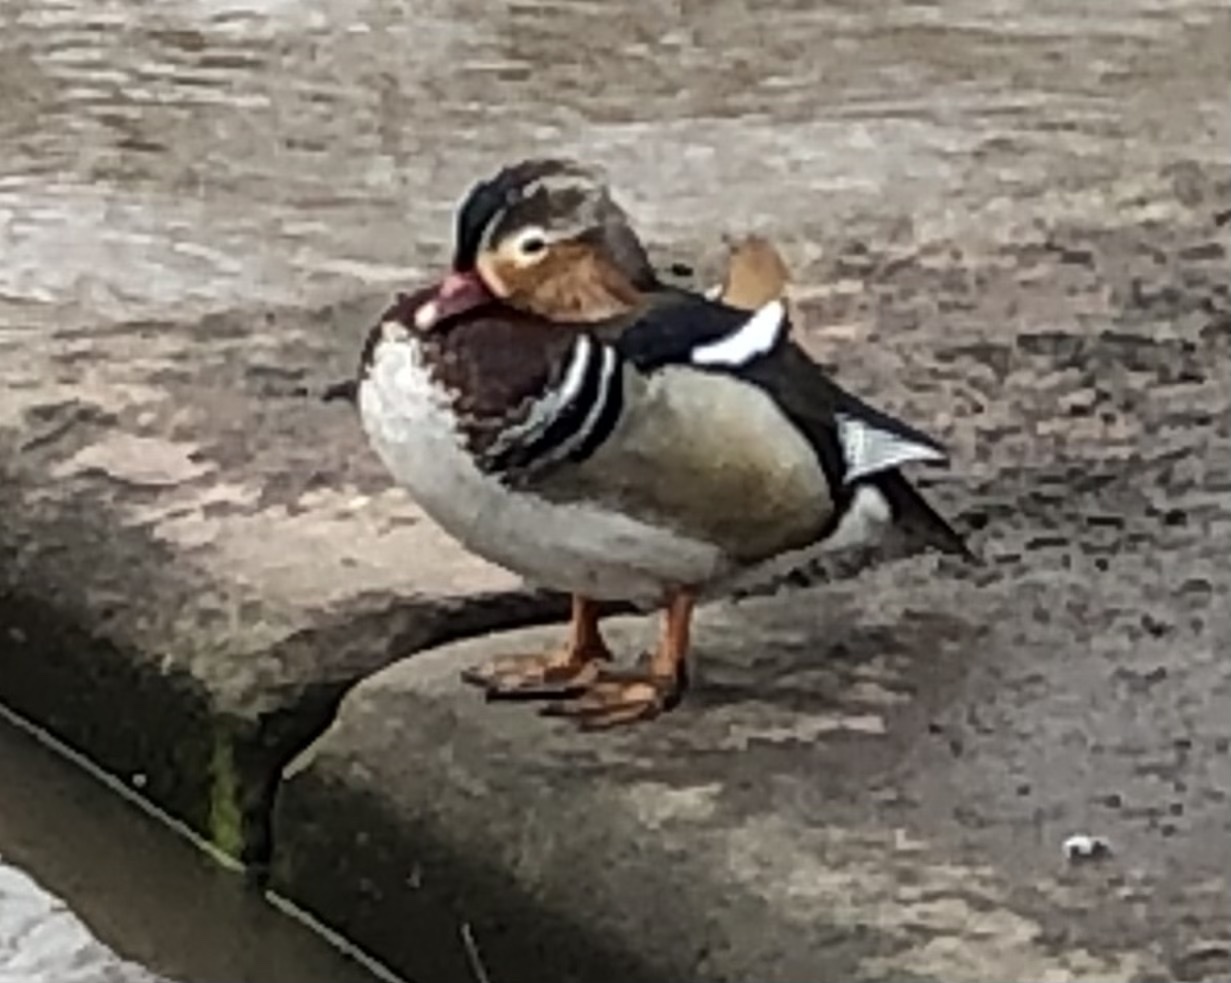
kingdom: Animalia
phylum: Chordata
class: Aves
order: Anseriformes
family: Anatidae
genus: Aix
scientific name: Aix galericulata
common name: Mandarin duck
